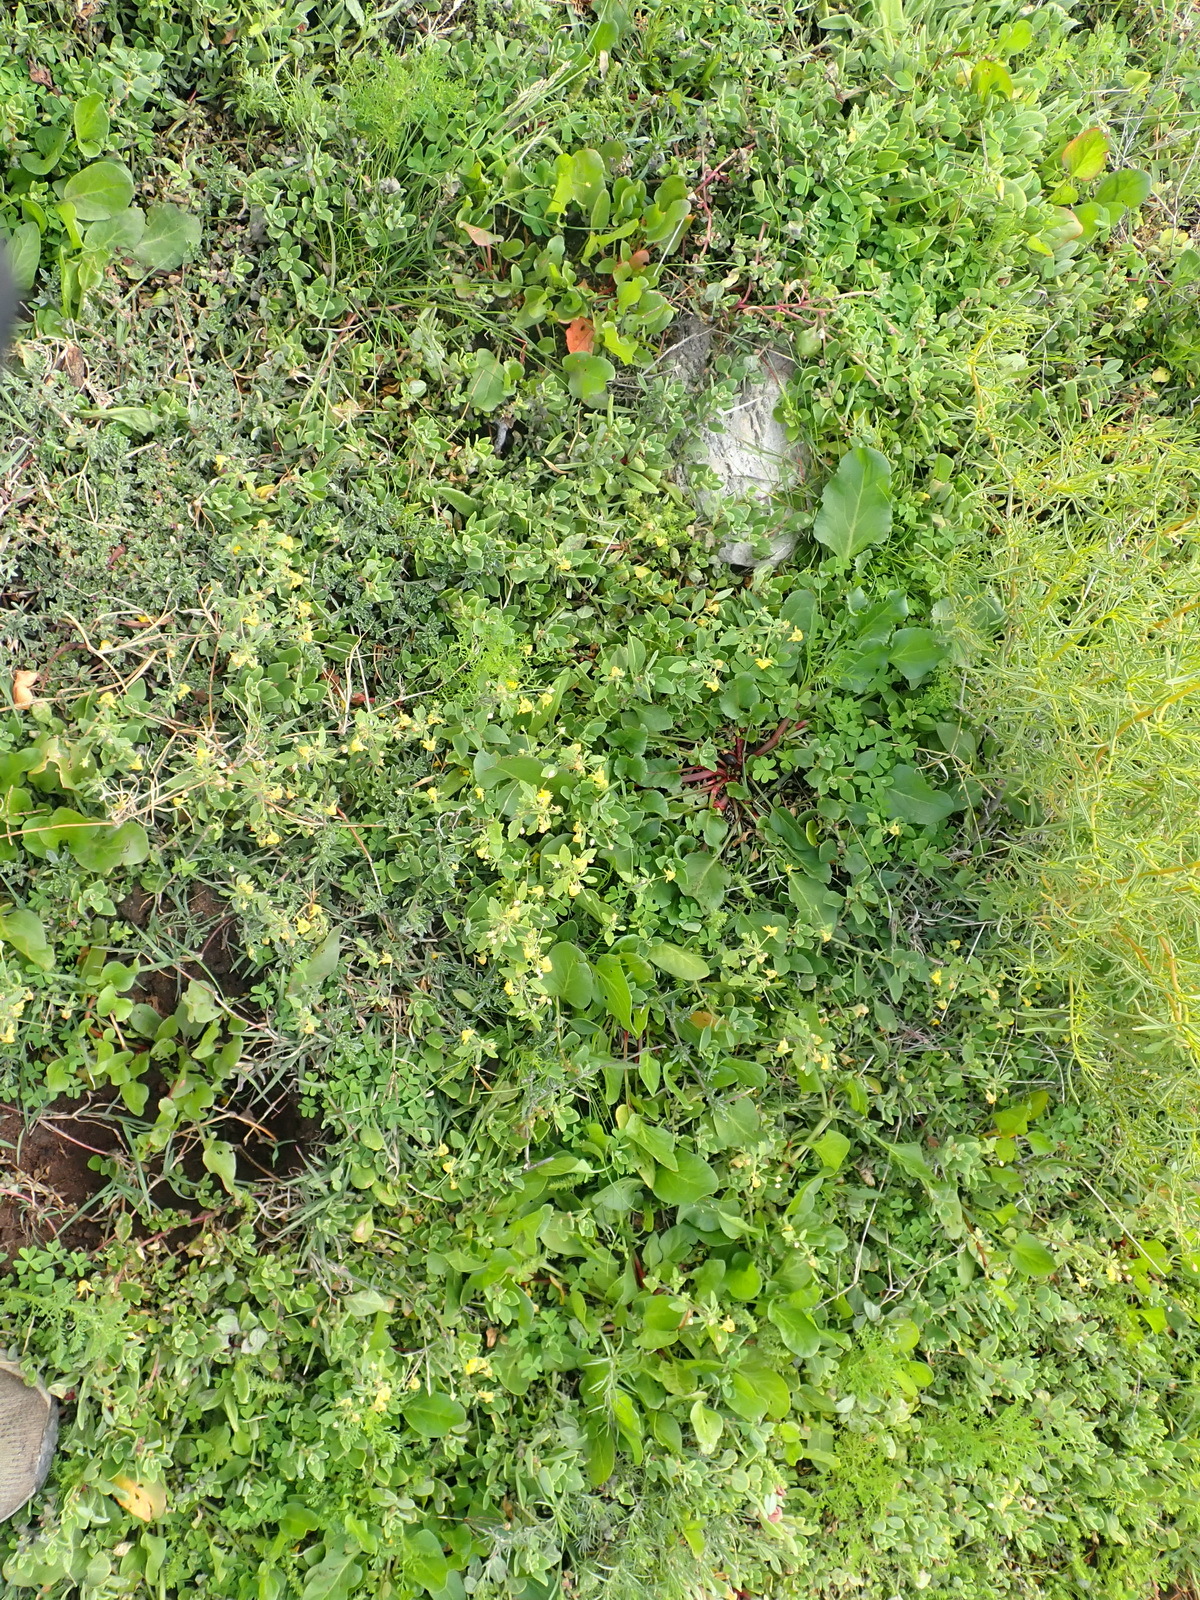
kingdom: Plantae
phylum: Tracheophyta
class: Magnoliopsida
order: Lamiales
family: Scrophulariaceae
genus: Hemimeris
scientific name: Hemimeris gracilis
